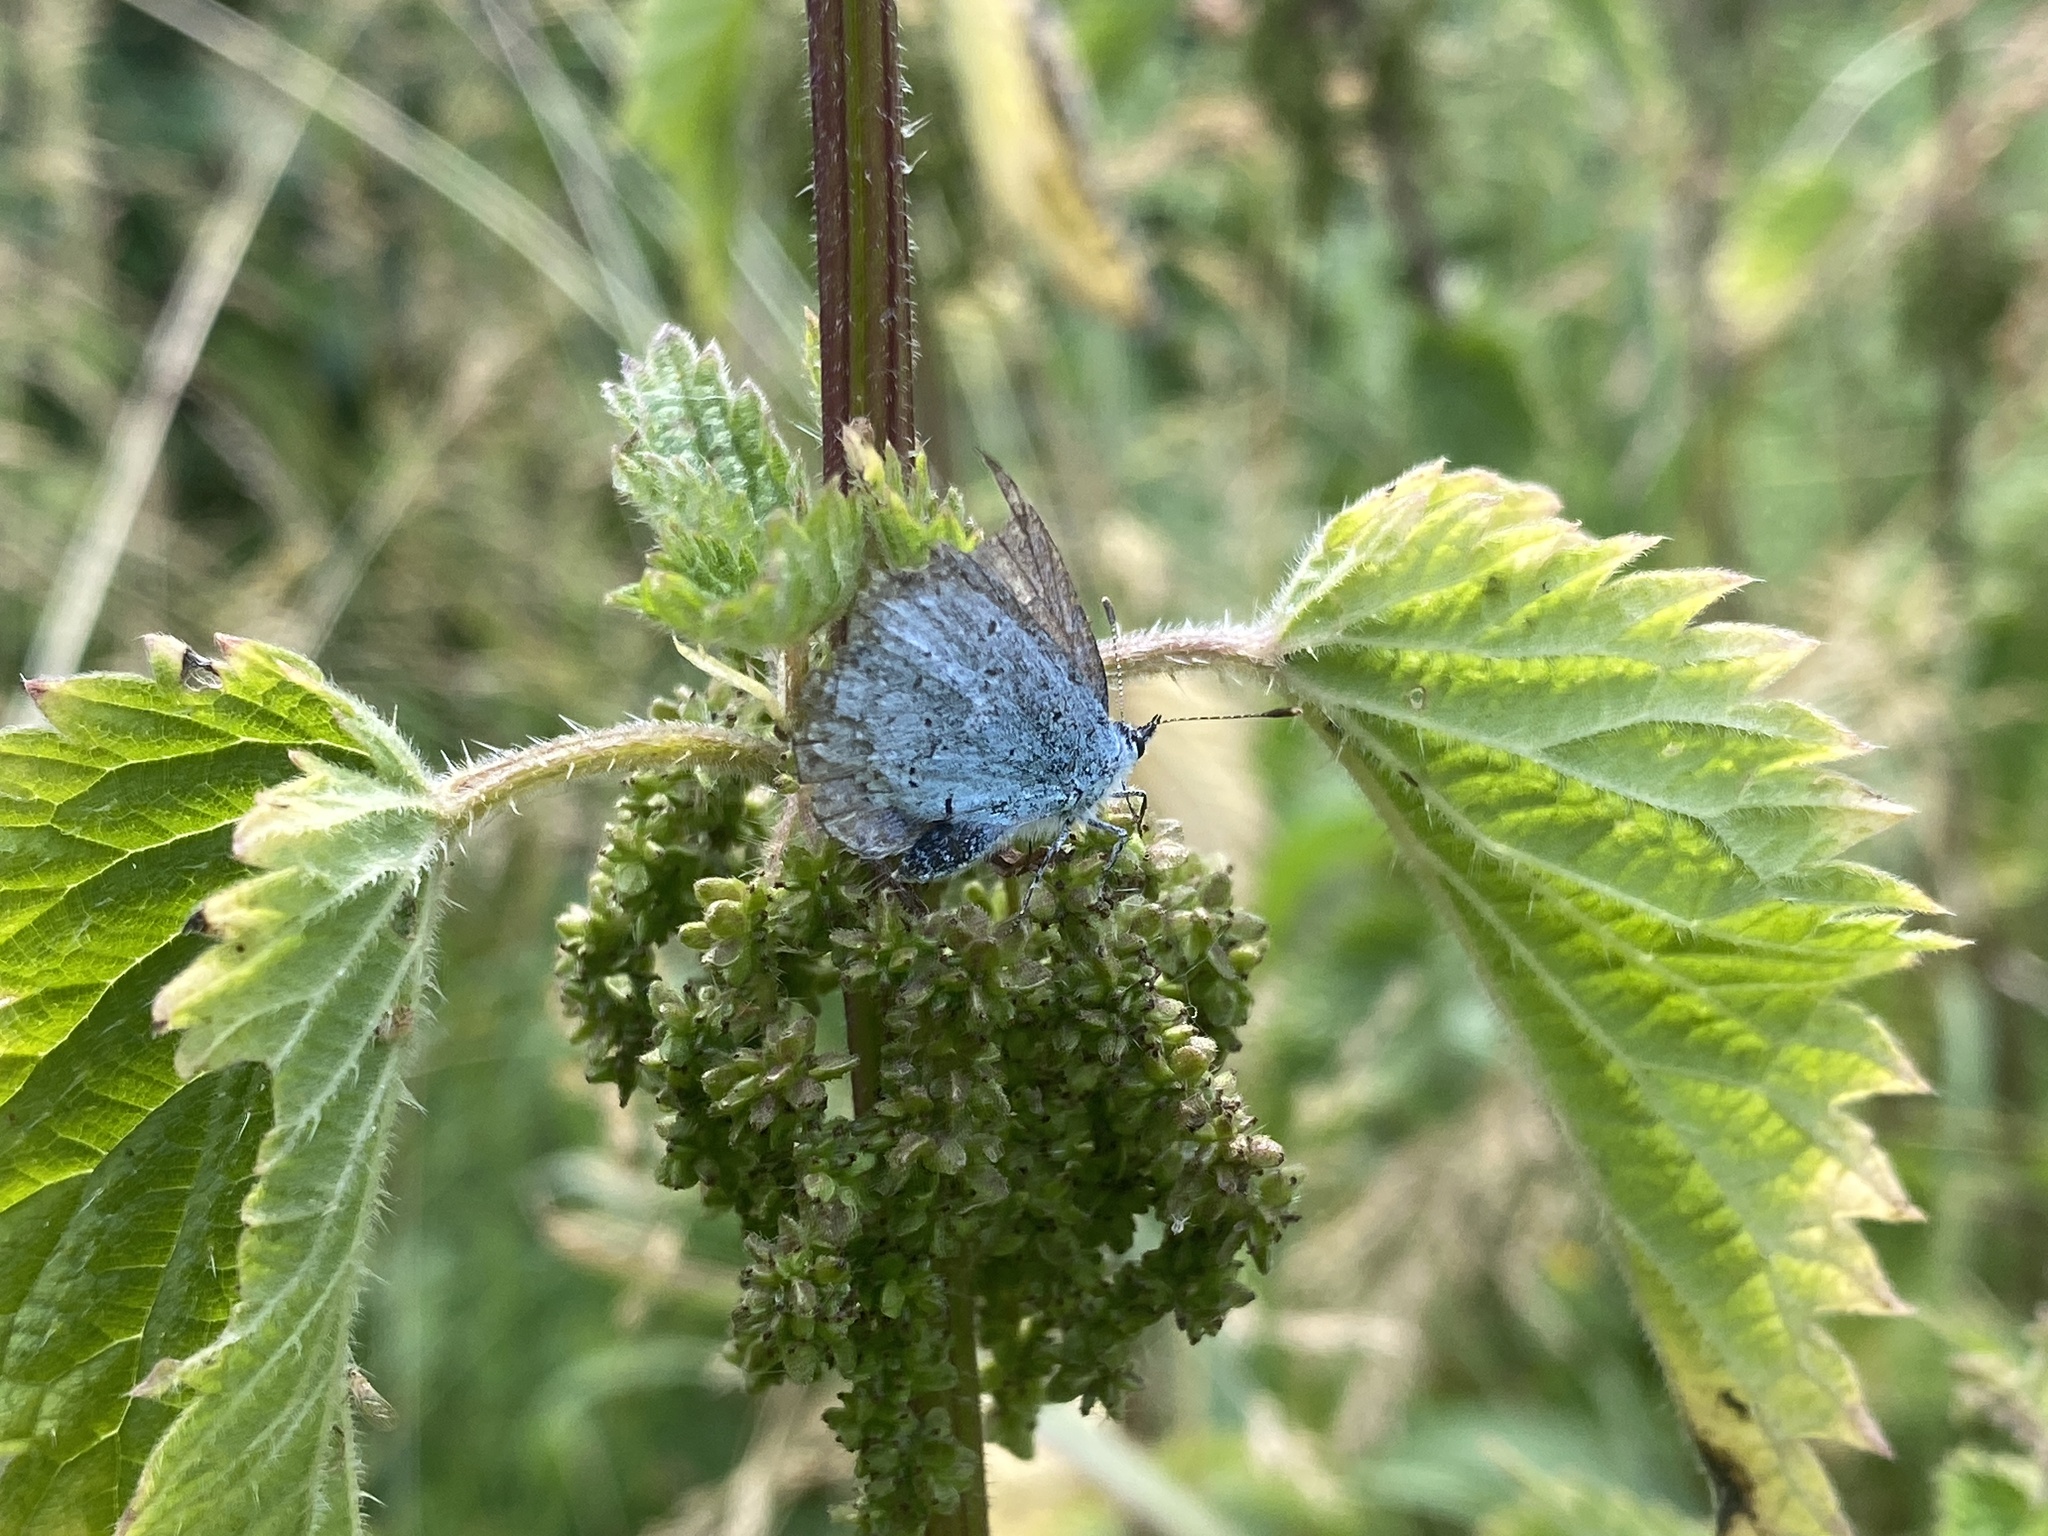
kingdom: Animalia
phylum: Arthropoda
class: Insecta
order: Lepidoptera
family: Lycaenidae
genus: Celastrina
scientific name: Celastrina argiolus
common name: Holly blue
